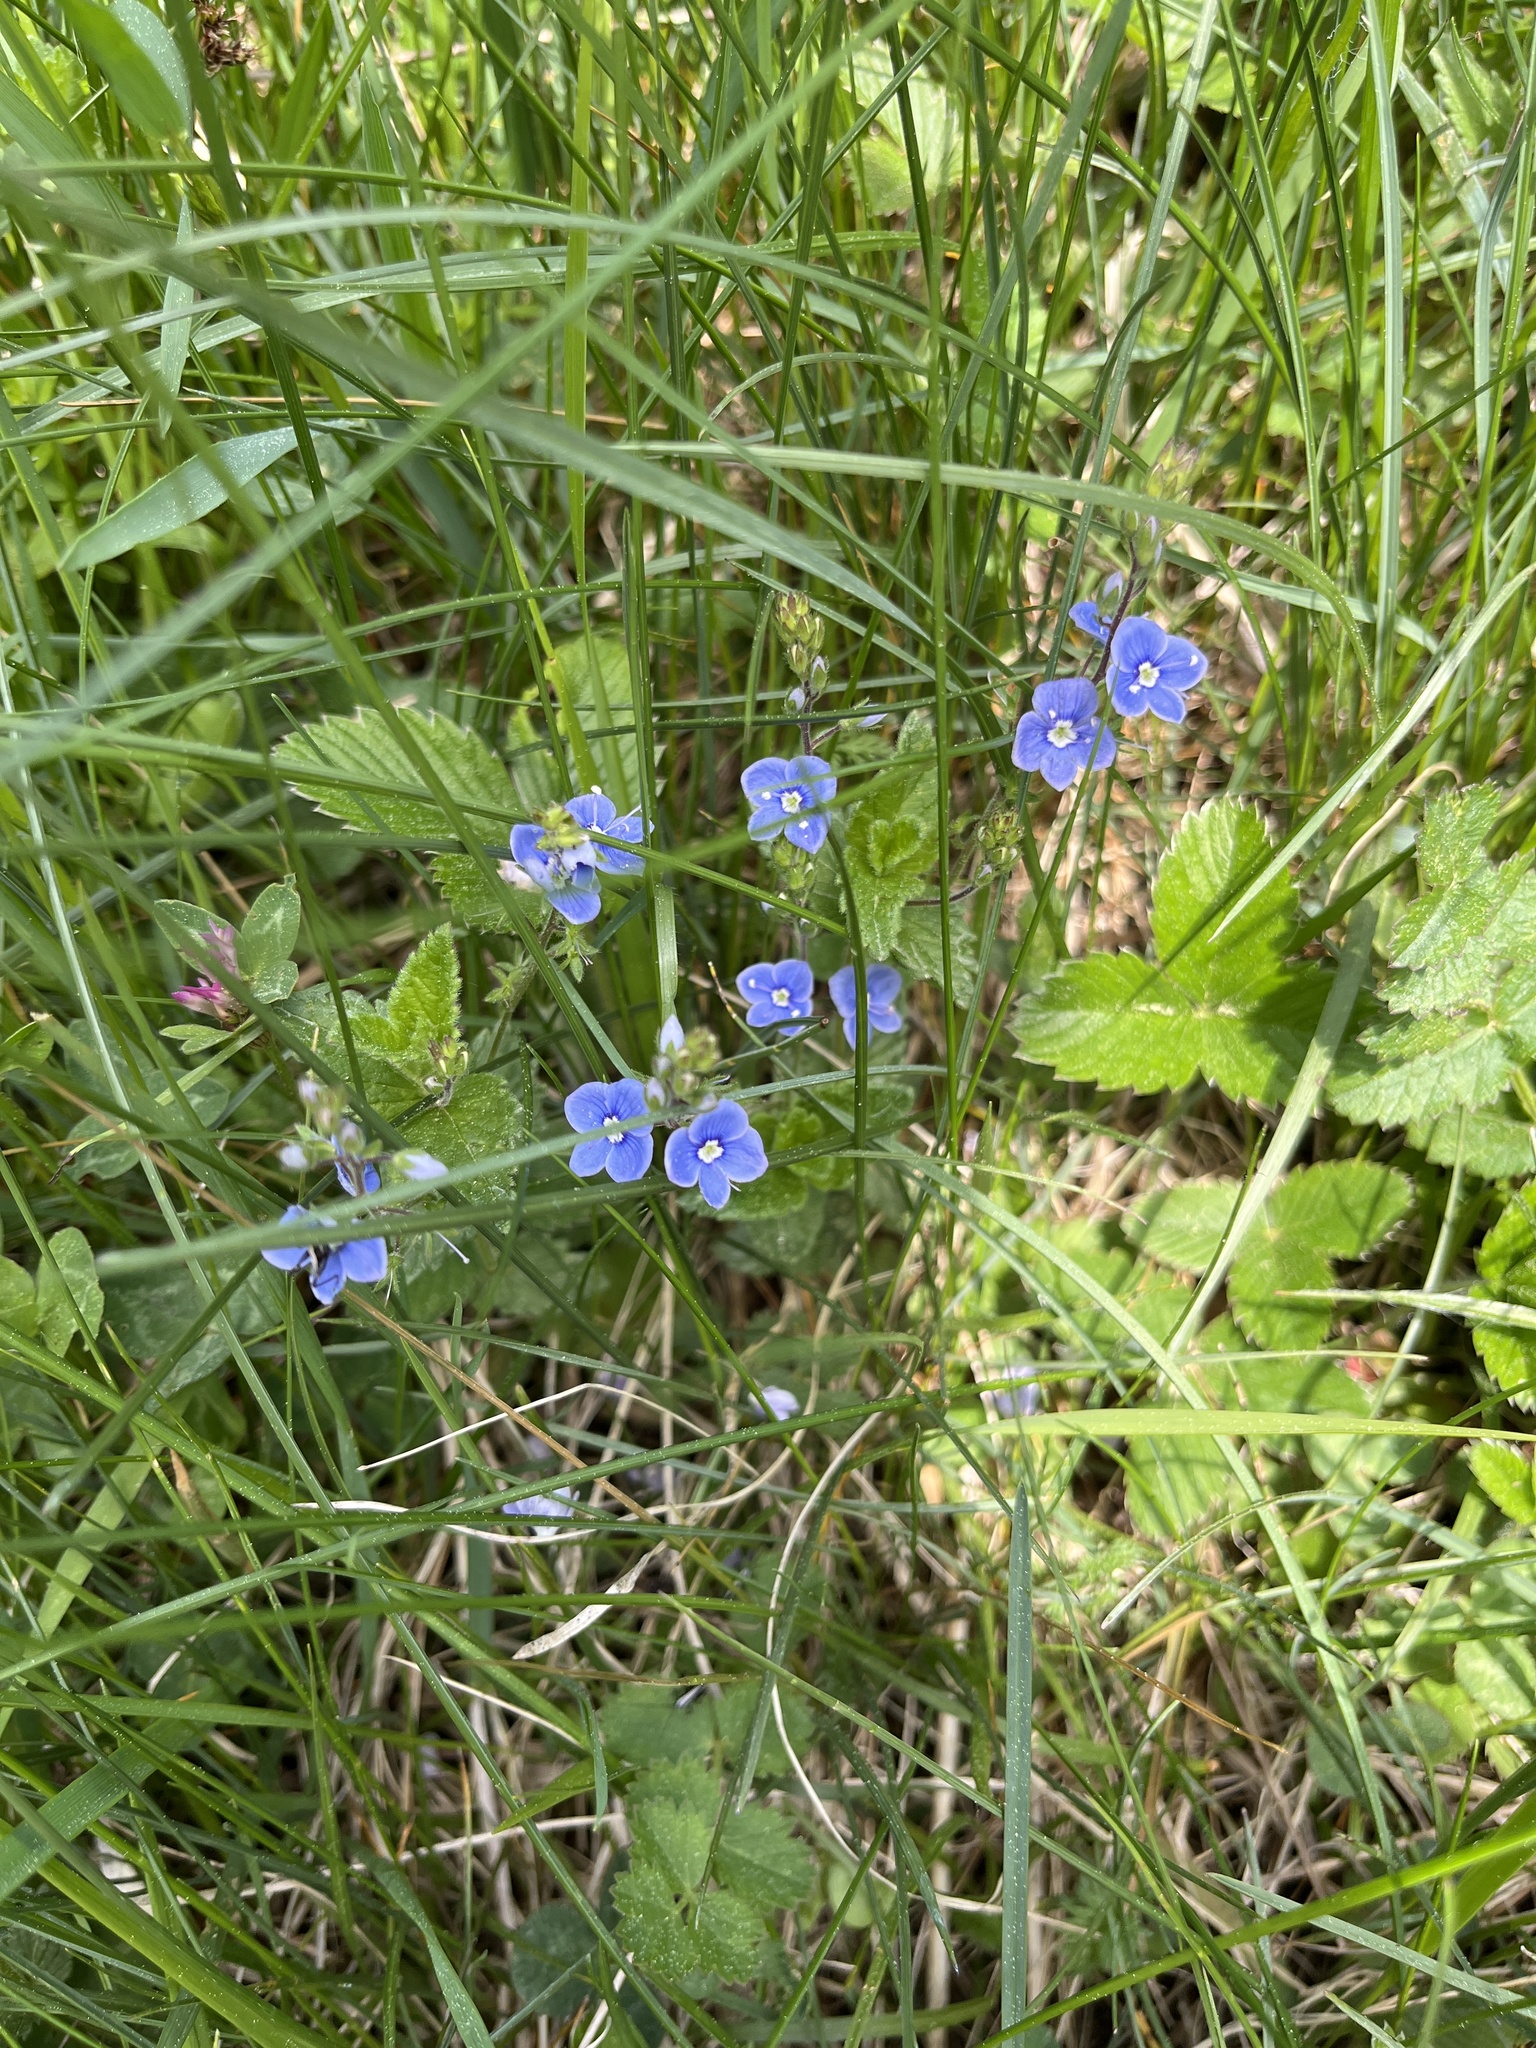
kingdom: Plantae
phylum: Tracheophyta
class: Magnoliopsida
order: Lamiales
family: Plantaginaceae
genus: Veronica
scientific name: Veronica chamaedrys
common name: Germander speedwell
